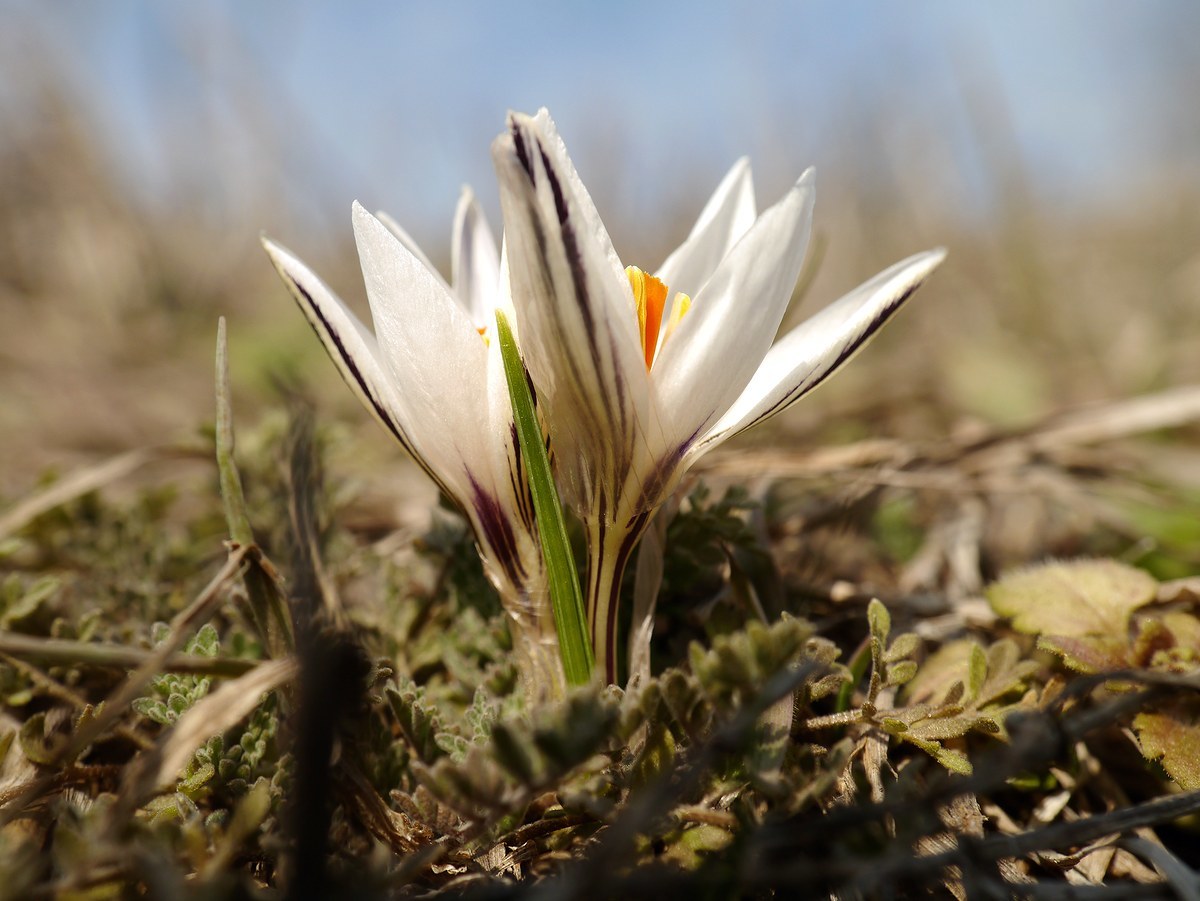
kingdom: Plantae
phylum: Tracheophyta
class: Liliopsida
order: Asparagales
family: Iridaceae
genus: Crocus
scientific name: Crocus reticulatus
